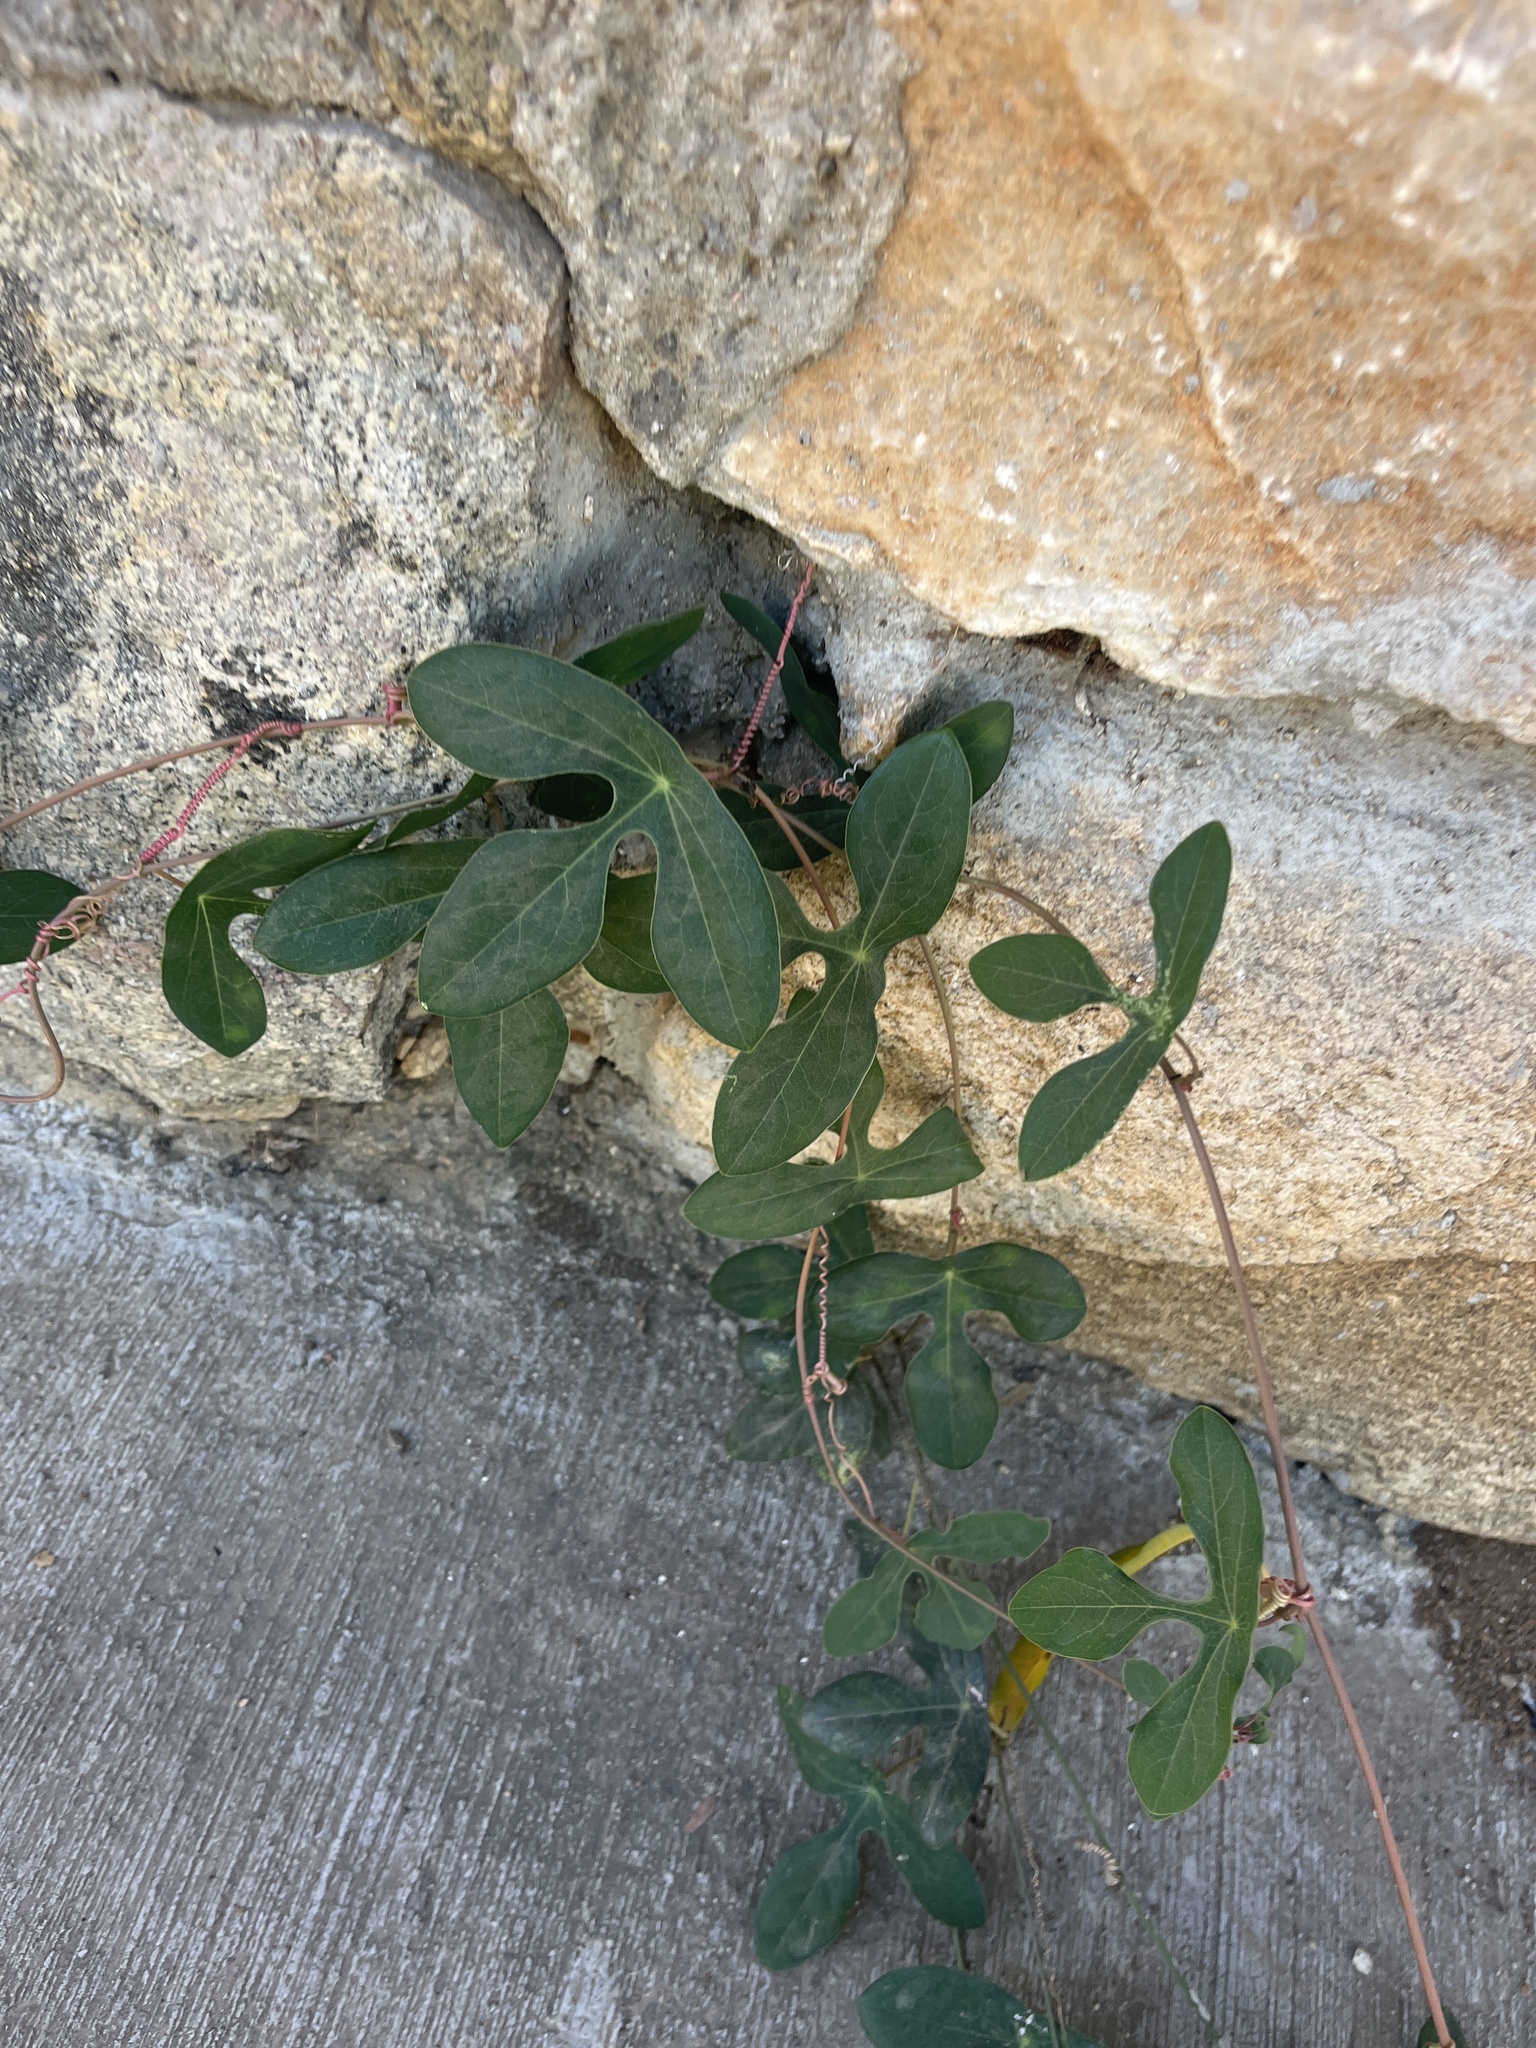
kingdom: Plantae
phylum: Tracheophyta
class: Magnoliopsida
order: Malpighiales
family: Passifloraceae
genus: Passiflora
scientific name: Passiflora viridiflora
